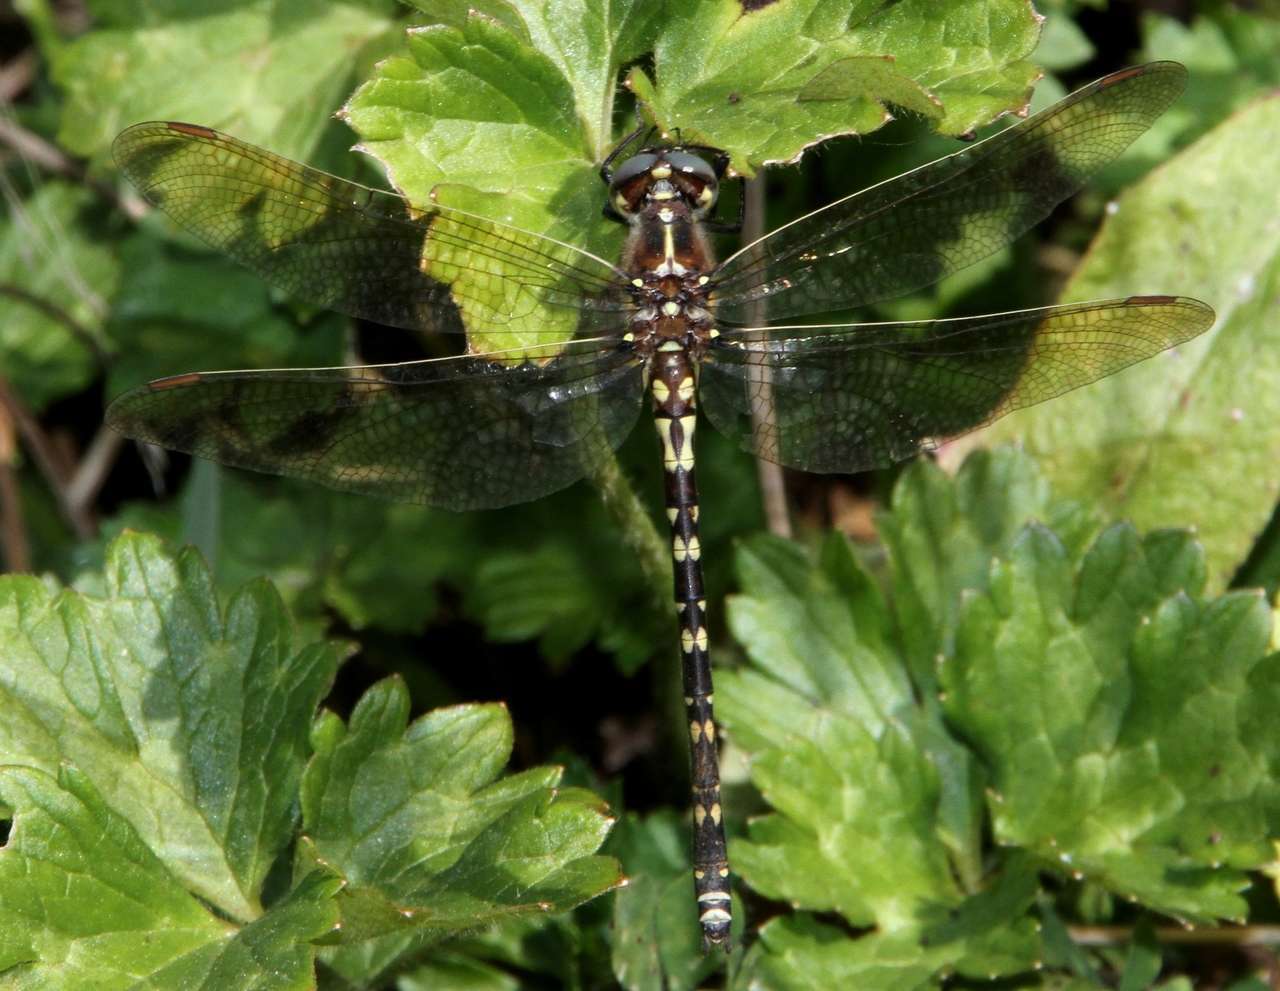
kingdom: Animalia
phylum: Arthropoda
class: Insecta
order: Odonata
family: Synthemistidae
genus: Synthemis
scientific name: Synthemis eustalacta
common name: Swamp tigertail
